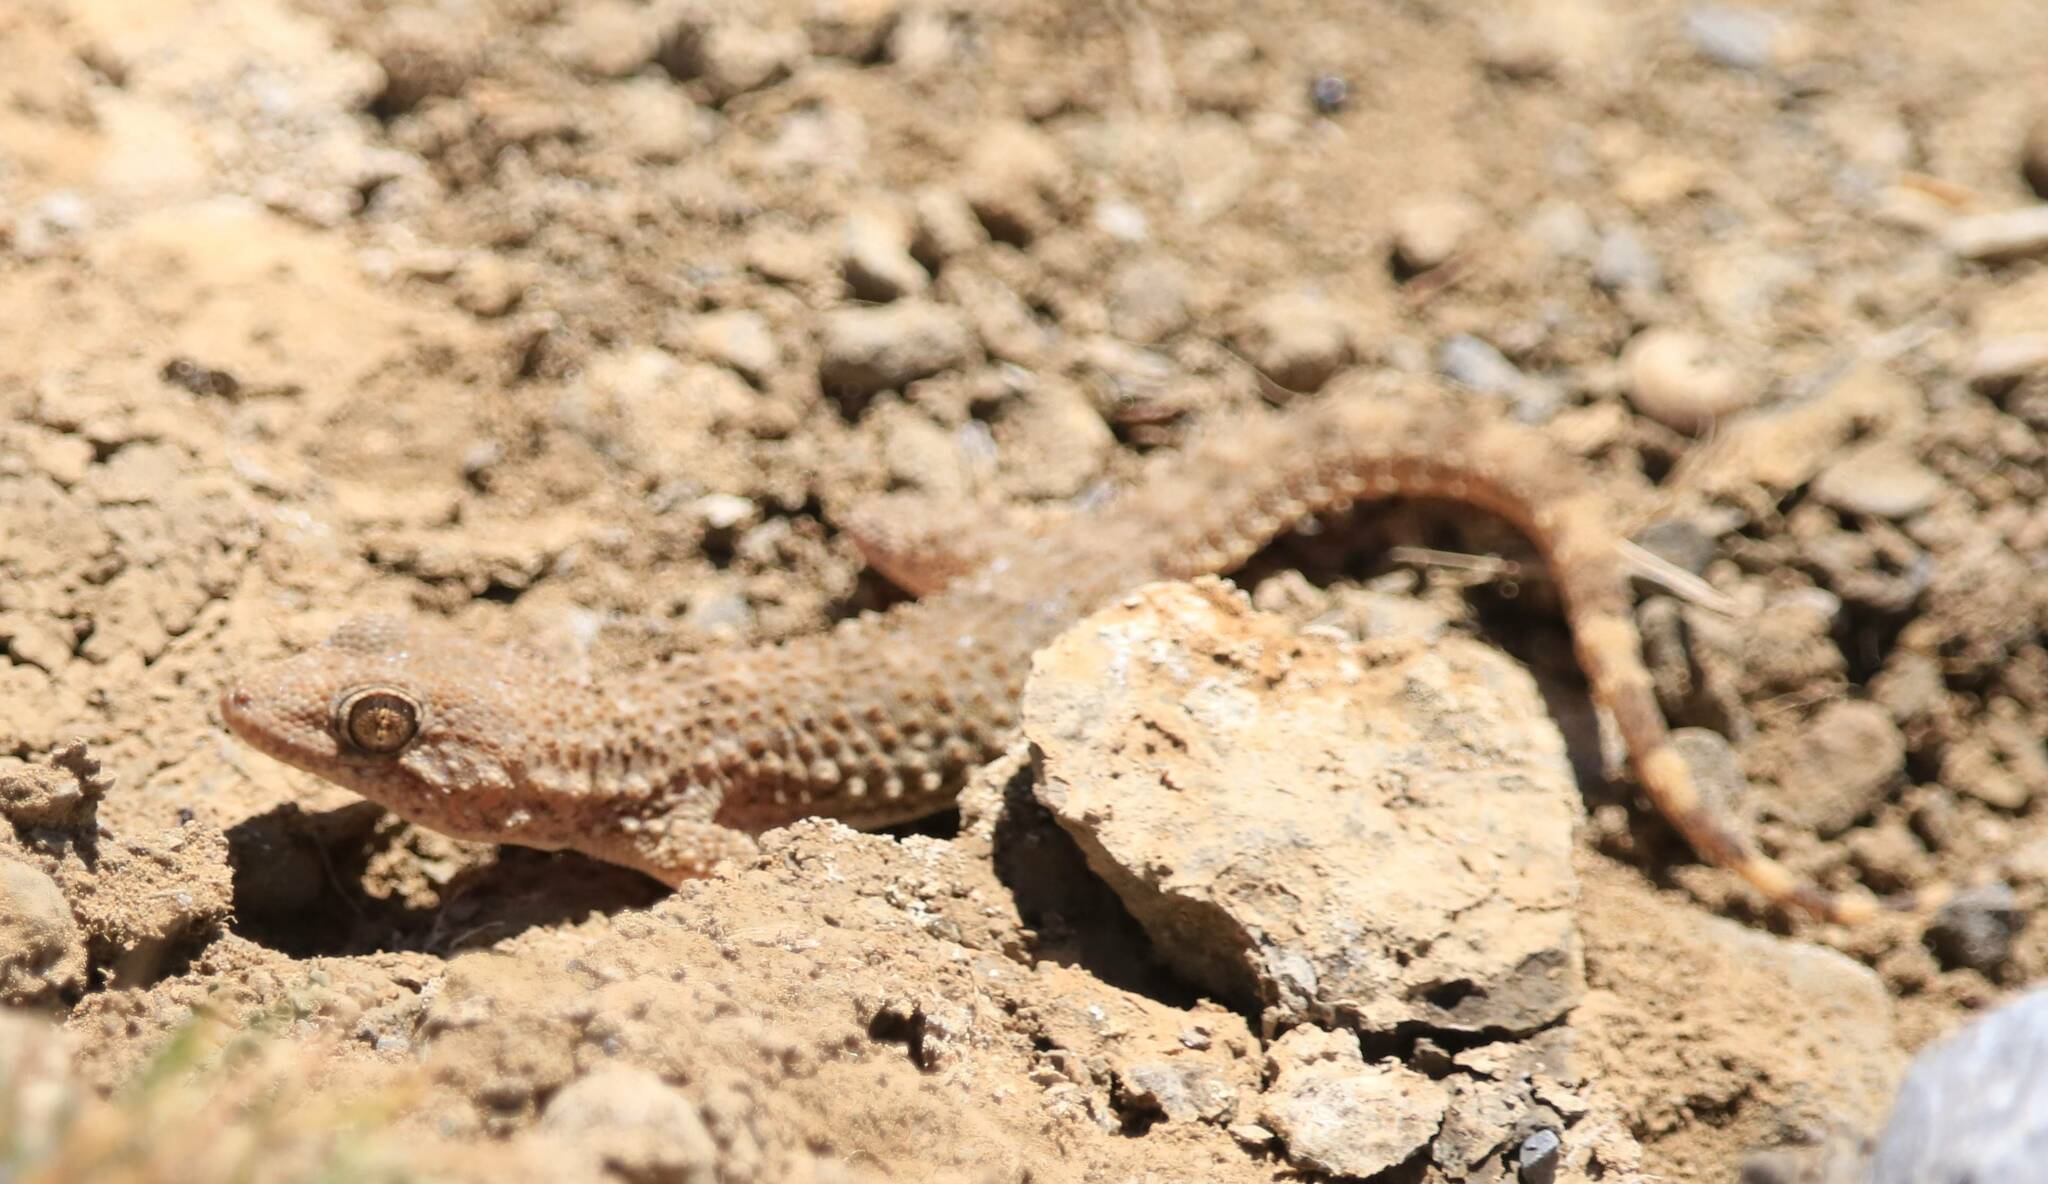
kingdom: Animalia
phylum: Chordata
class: Squamata
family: Phyllodactylidae
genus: Tarentola
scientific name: Tarentola mauritanica
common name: Moorish gecko
